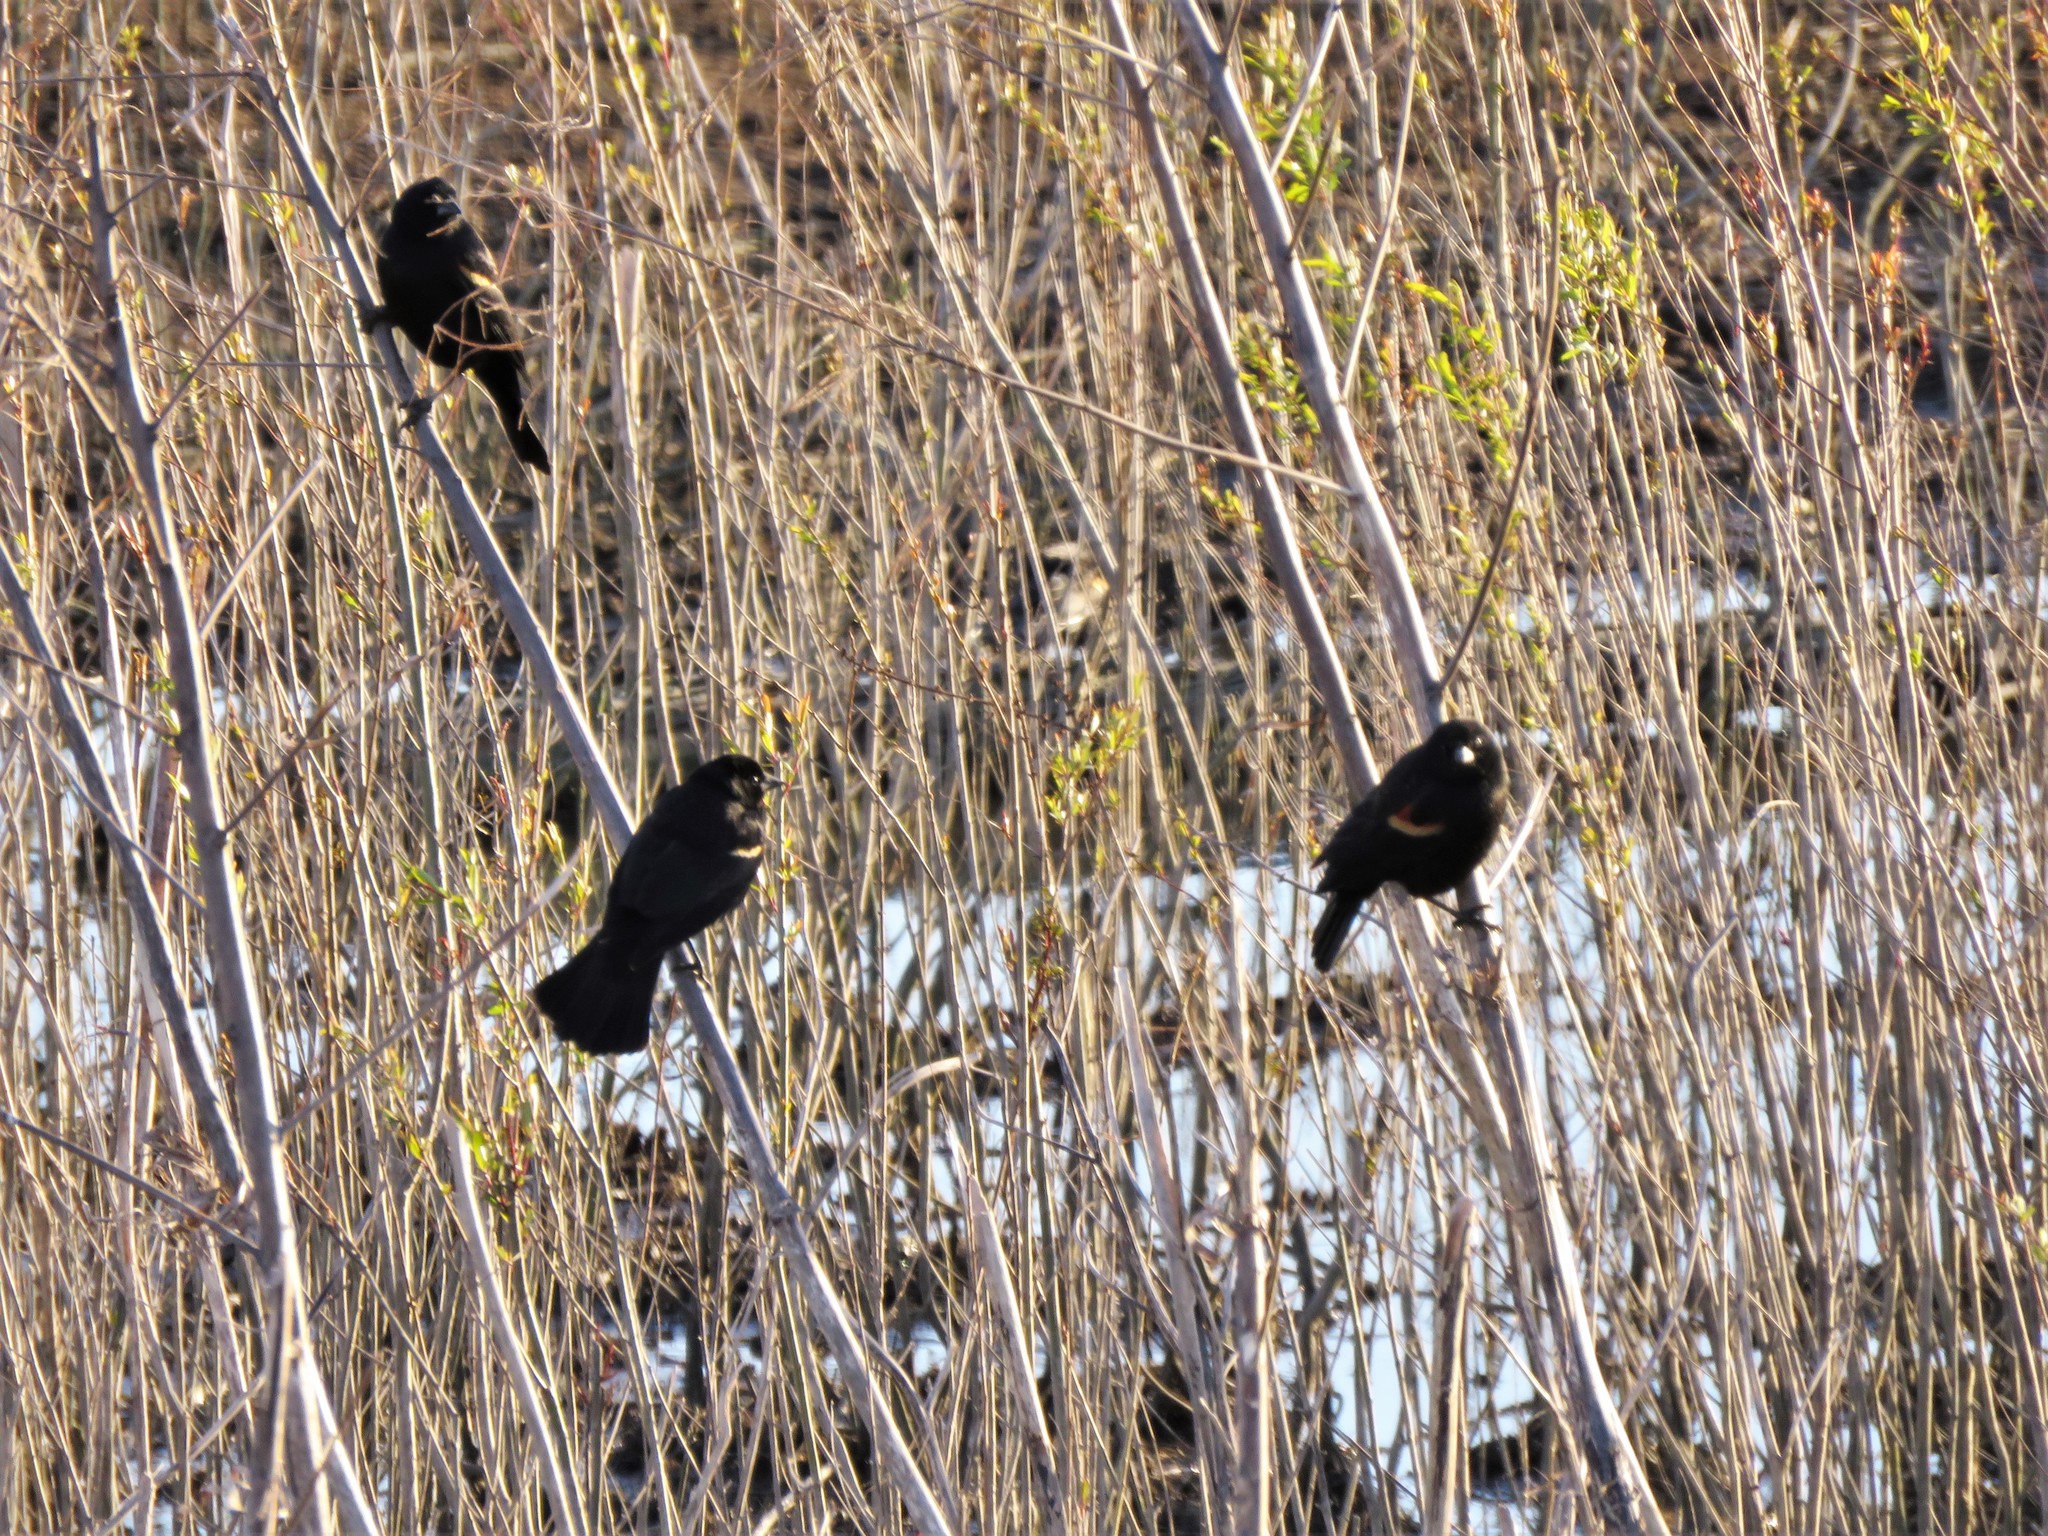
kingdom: Animalia
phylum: Chordata
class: Aves
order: Passeriformes
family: Icteridae
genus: Agelaius
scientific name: Agelaius phoeniceus
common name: Red-winged blackbird
